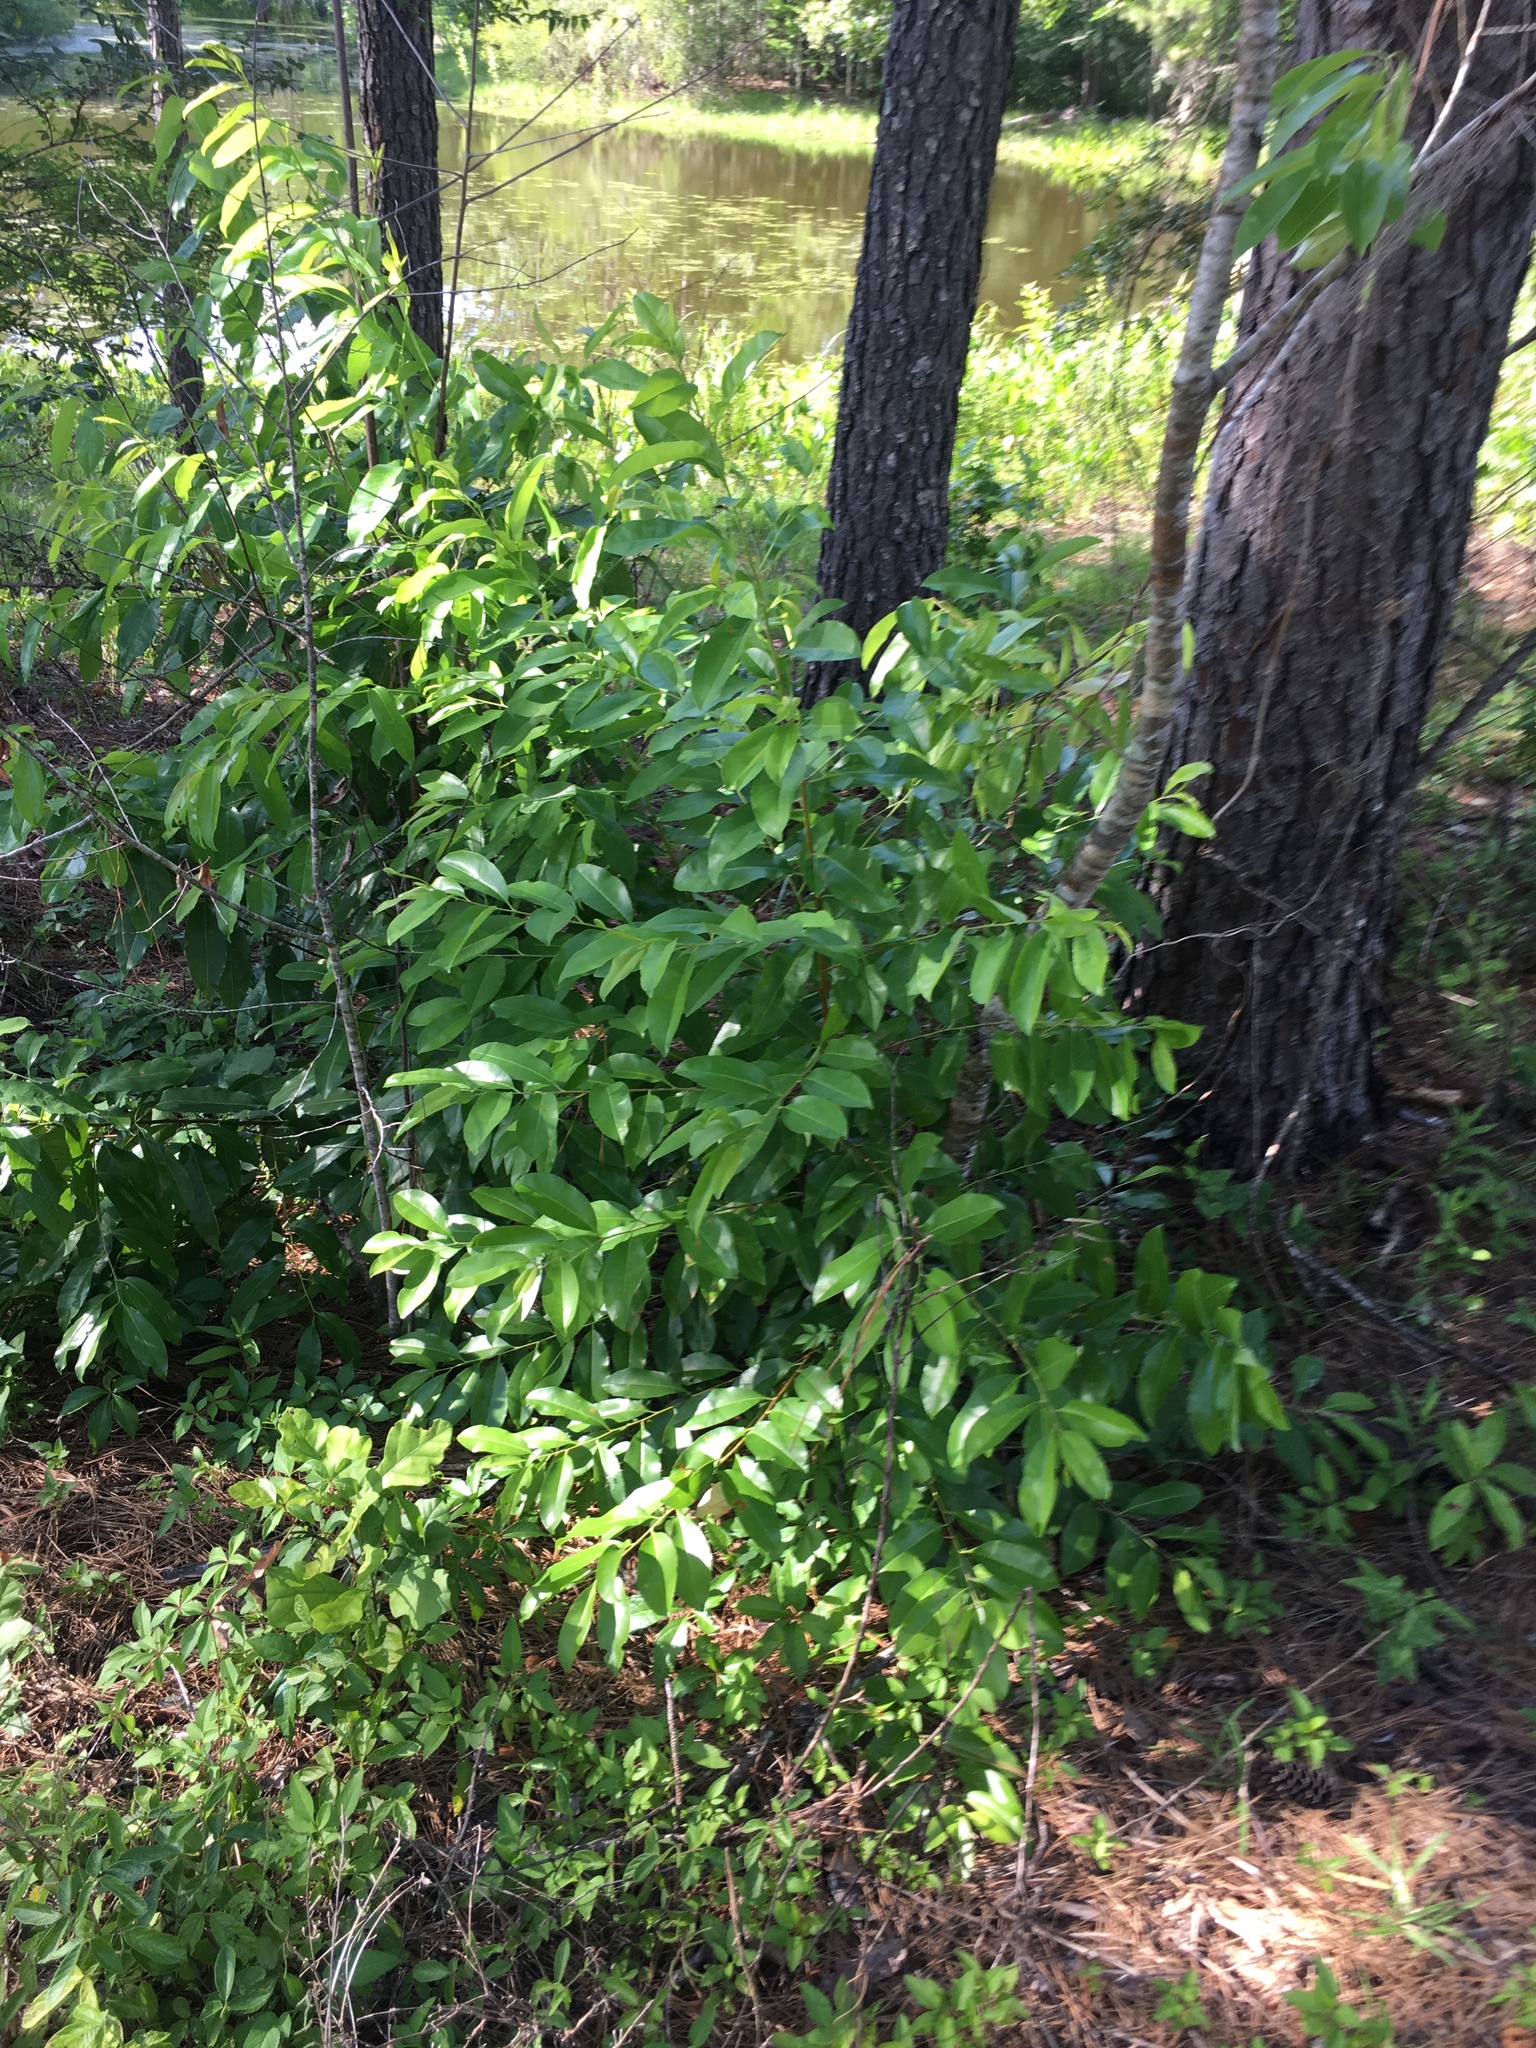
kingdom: Plantae
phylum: Tracheophyta
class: Magnoliopsida
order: Rosales
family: Rosaceae
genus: Prunus
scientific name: Prunus caroliniana
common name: Carolina laurel cherry
